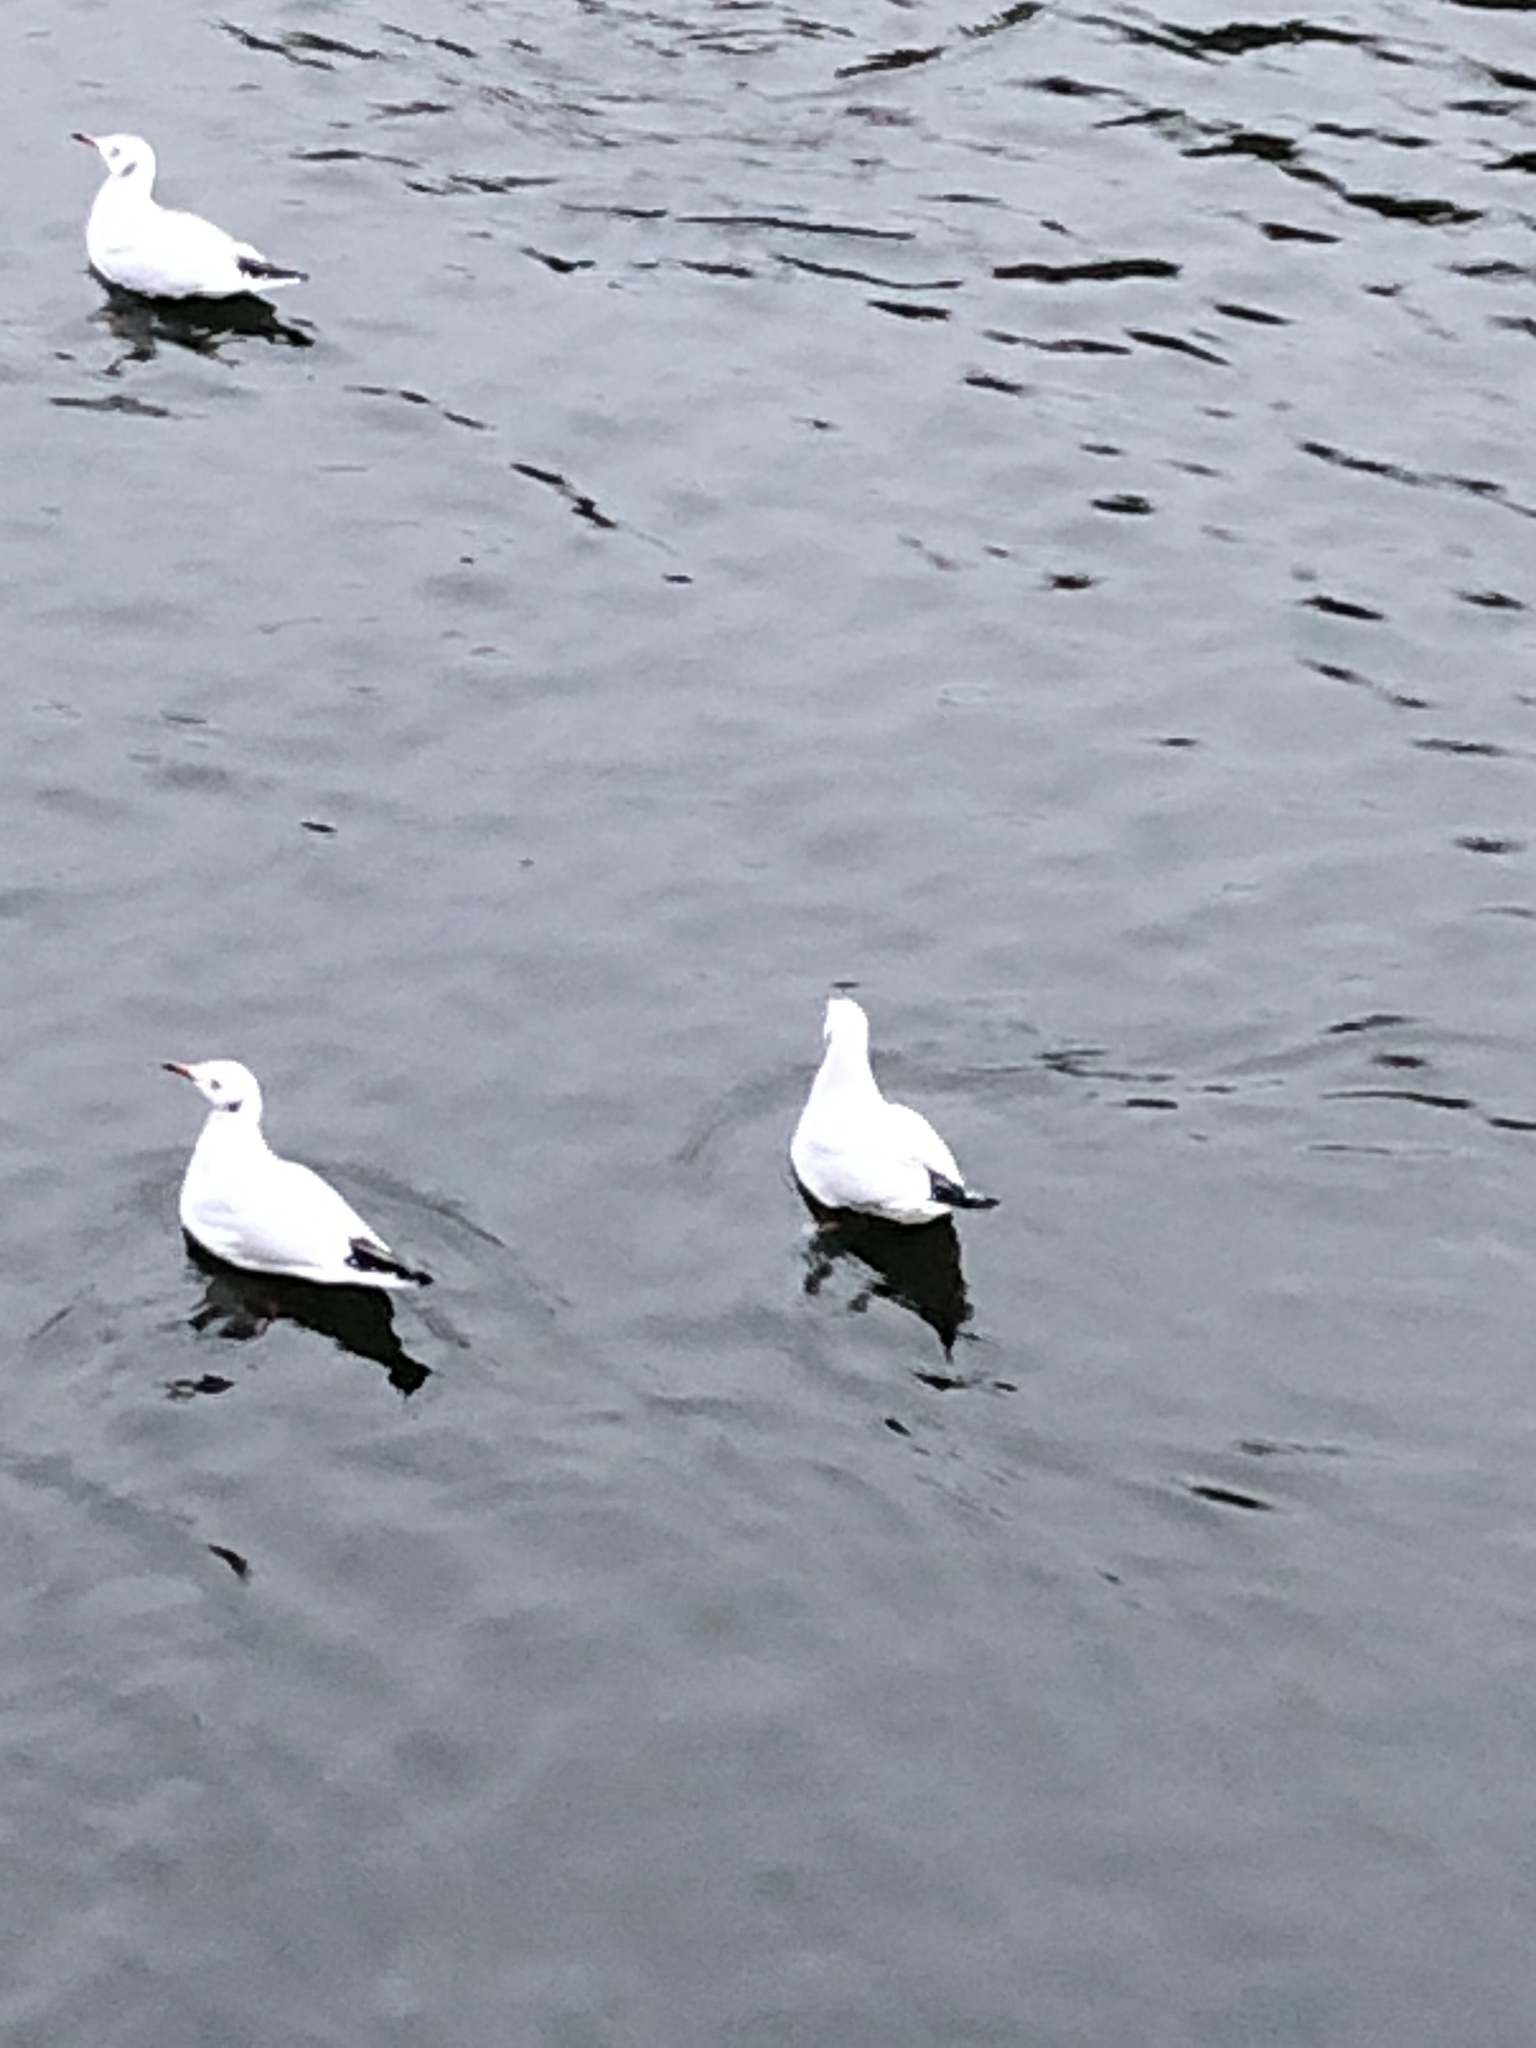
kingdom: Animalia
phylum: Chordata
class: Aves
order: Charadriiformes
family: Laridae
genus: Chroicocephalus
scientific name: Chroicocephalus ridibundus
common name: Black-headed gull
